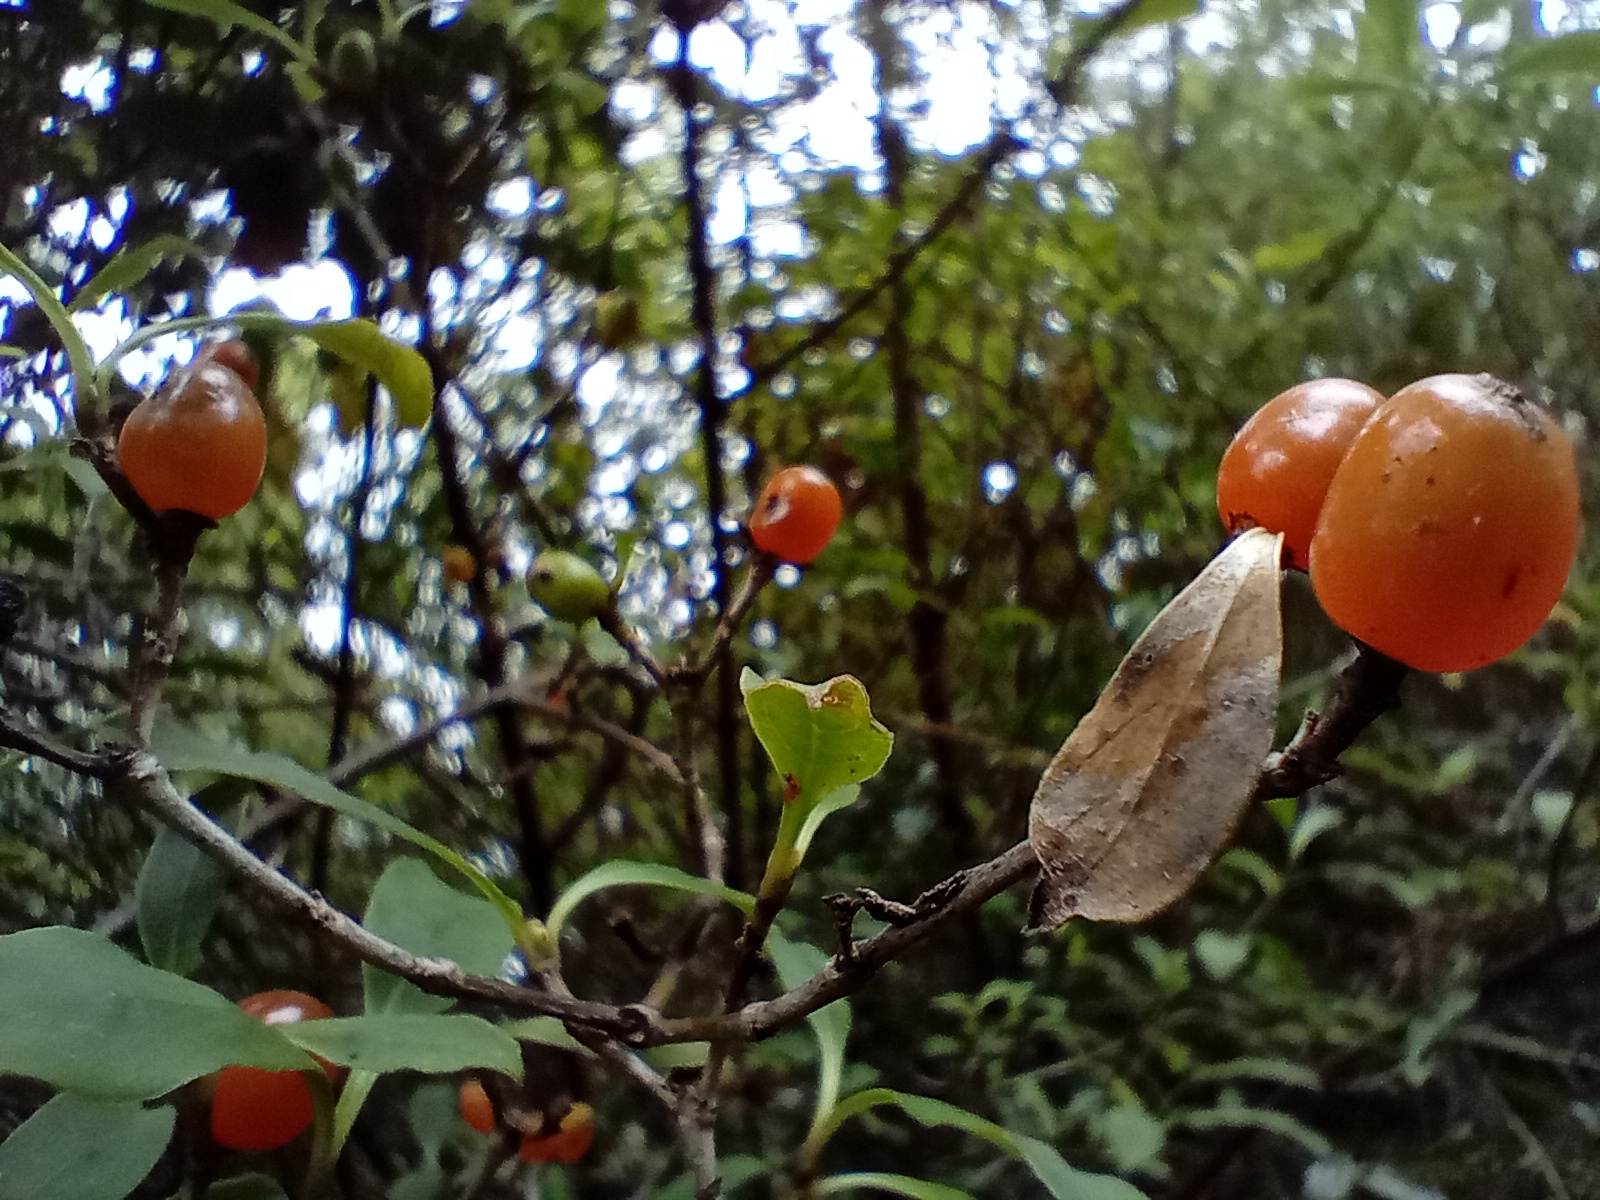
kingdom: Plantae
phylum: Tracheophyta
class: Magnoliopsida
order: Gentianales
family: Rubiaceae
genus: Coprosma
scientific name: Coprosma foetidissima
